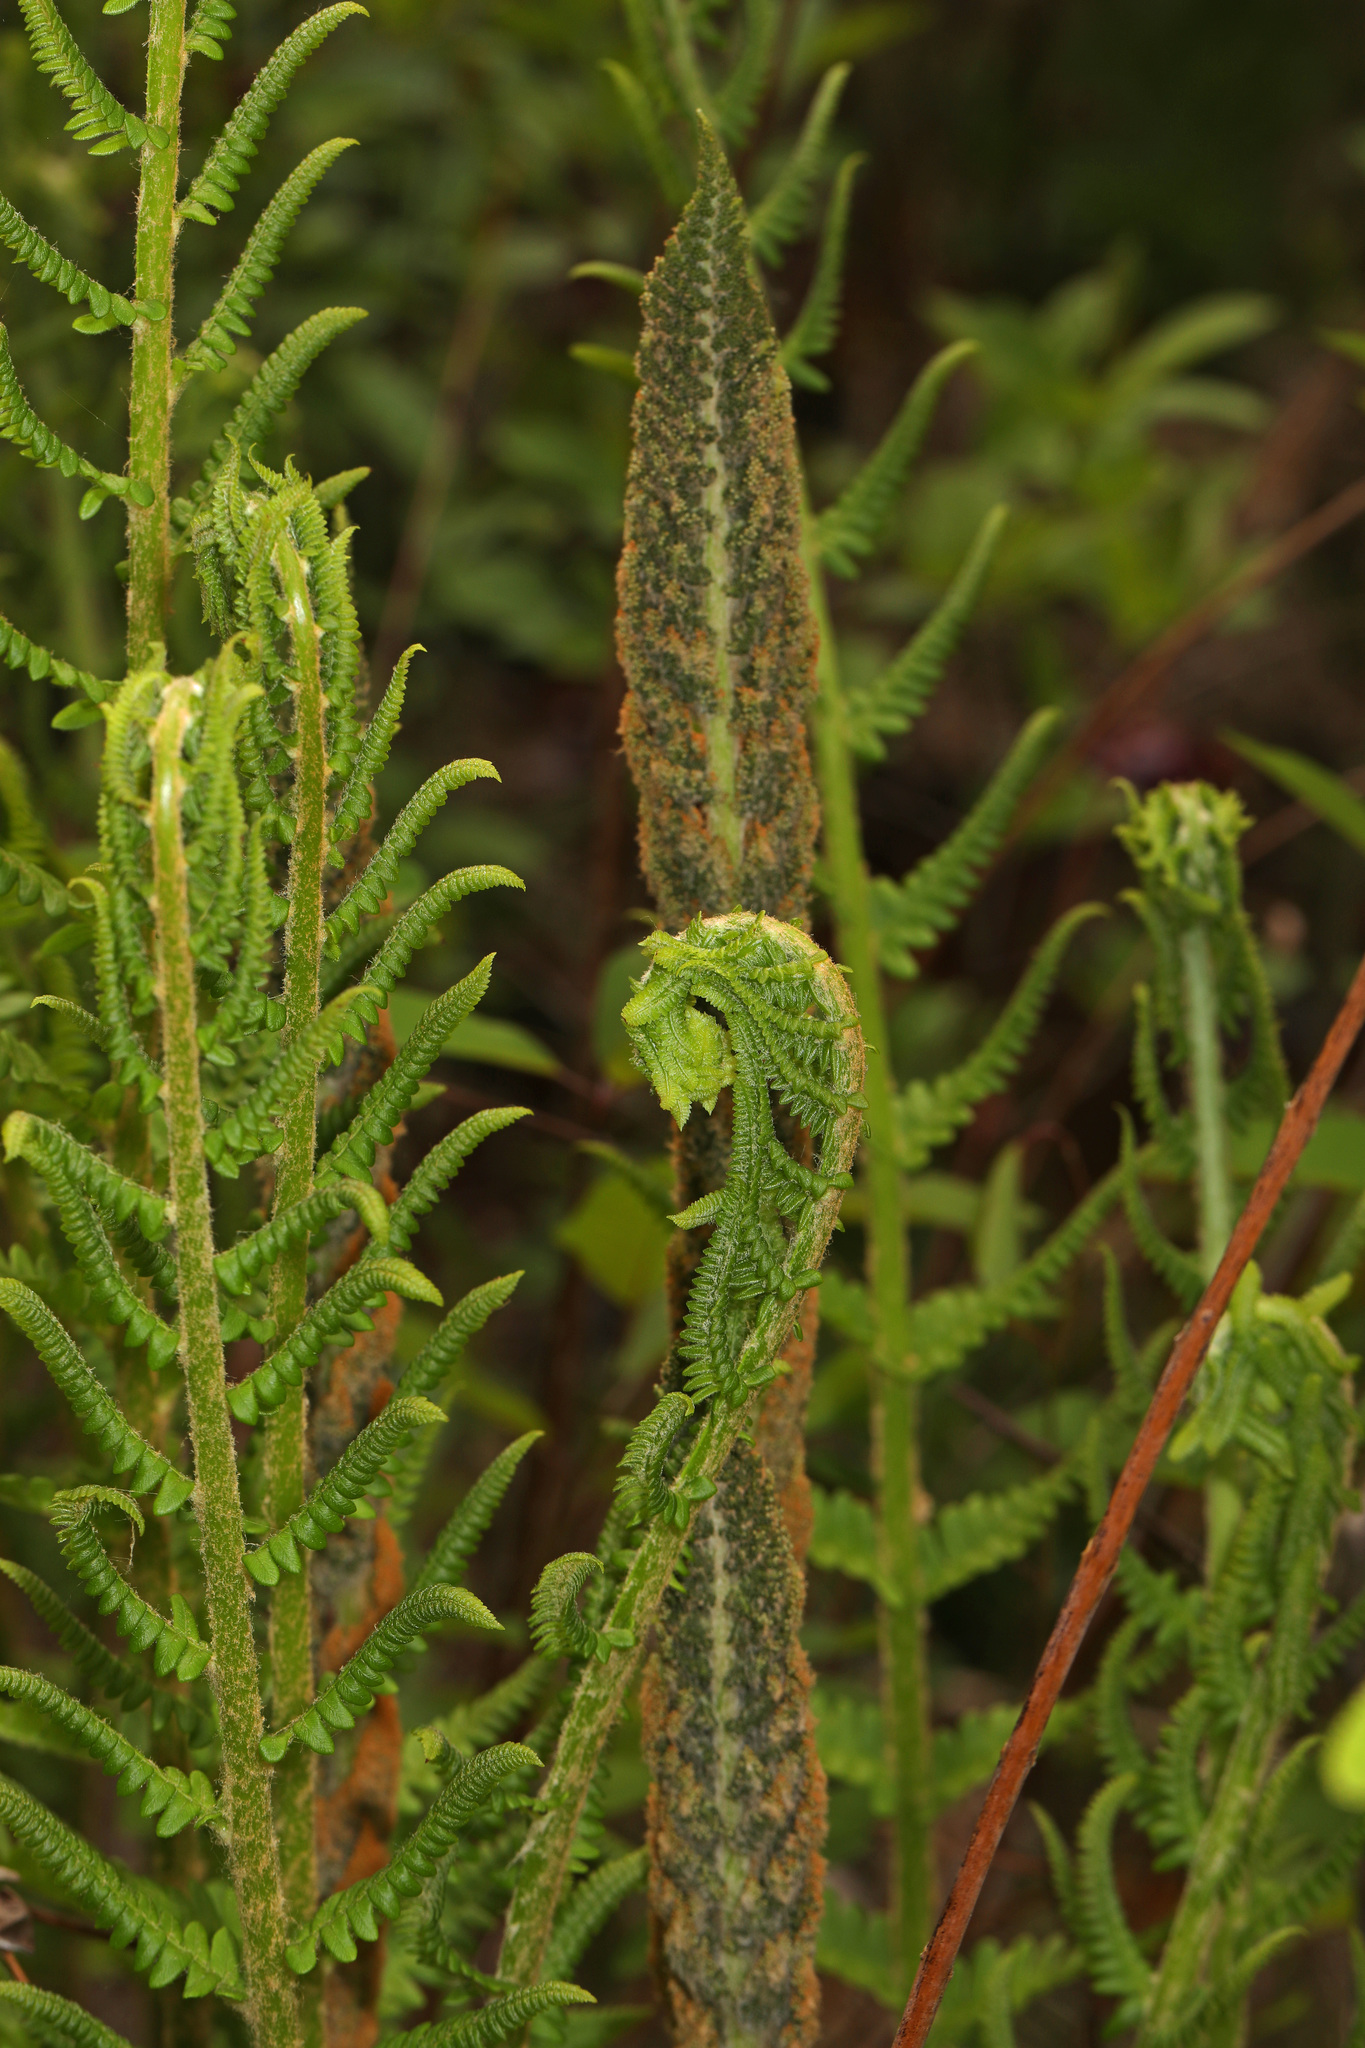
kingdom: Plantae
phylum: Tracheophyta
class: Polypodiopsida
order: Osmundales
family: Osmundaceae
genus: Osmundastrum
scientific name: Osmundastrum cinnamomeum
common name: Cinnamon fern
